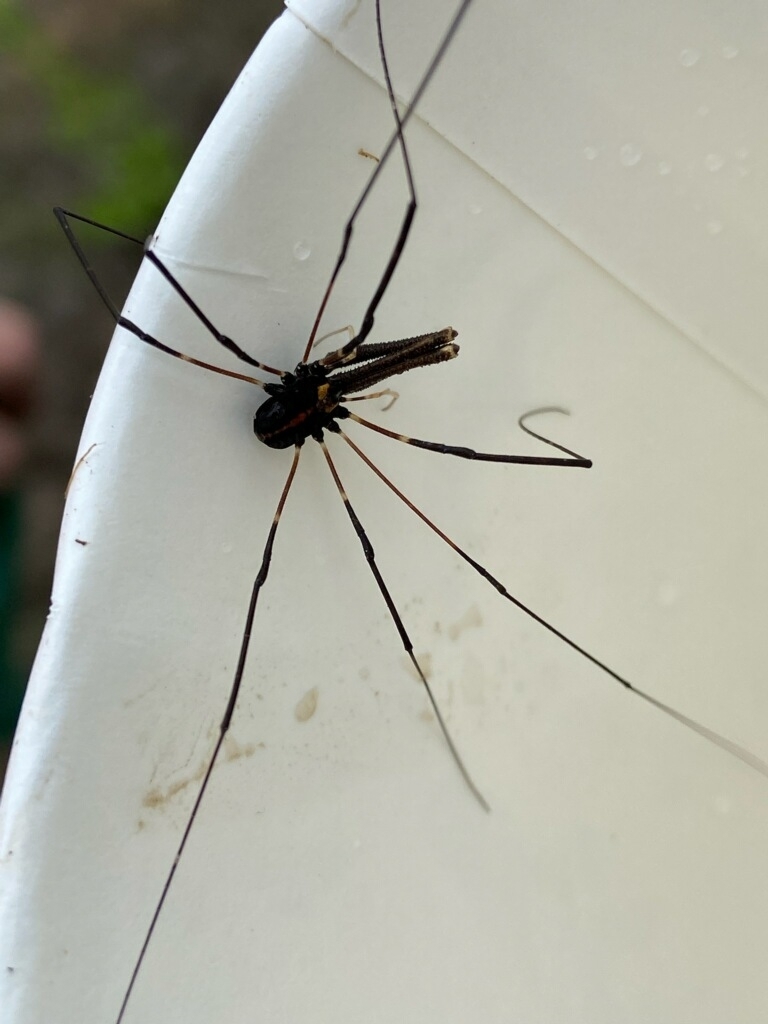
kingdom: Animalia
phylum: Arthropoda
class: Arachnida
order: Opiliones
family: Neopilionidae
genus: Forsteropsalis
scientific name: Forsteropsalis pureora
